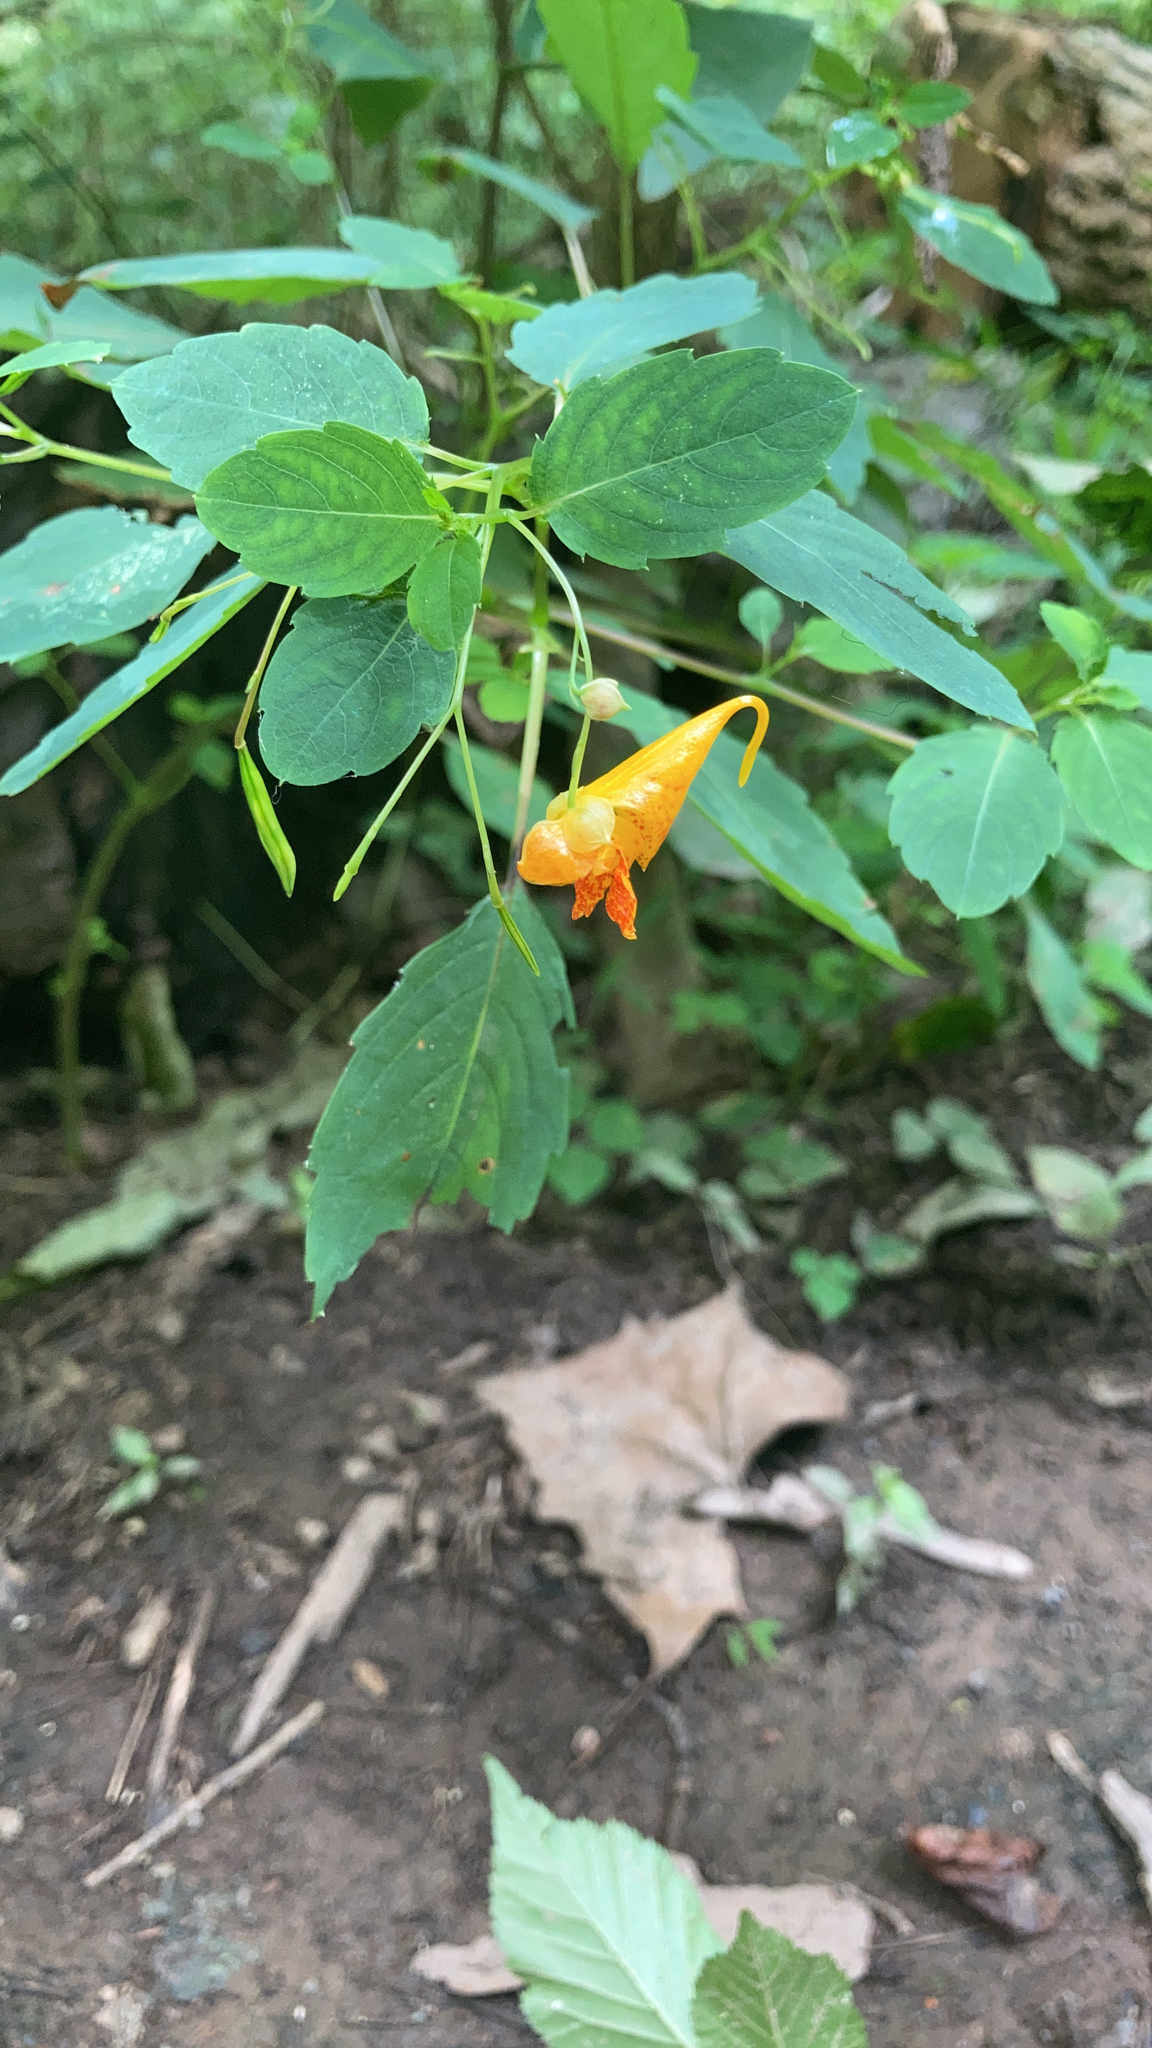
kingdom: Plantae
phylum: Tracheophyta
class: Magnoliopsida
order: Ericales
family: Balsaminaceae
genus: Impatiens
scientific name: Impatiens capensis
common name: Orange balsam
